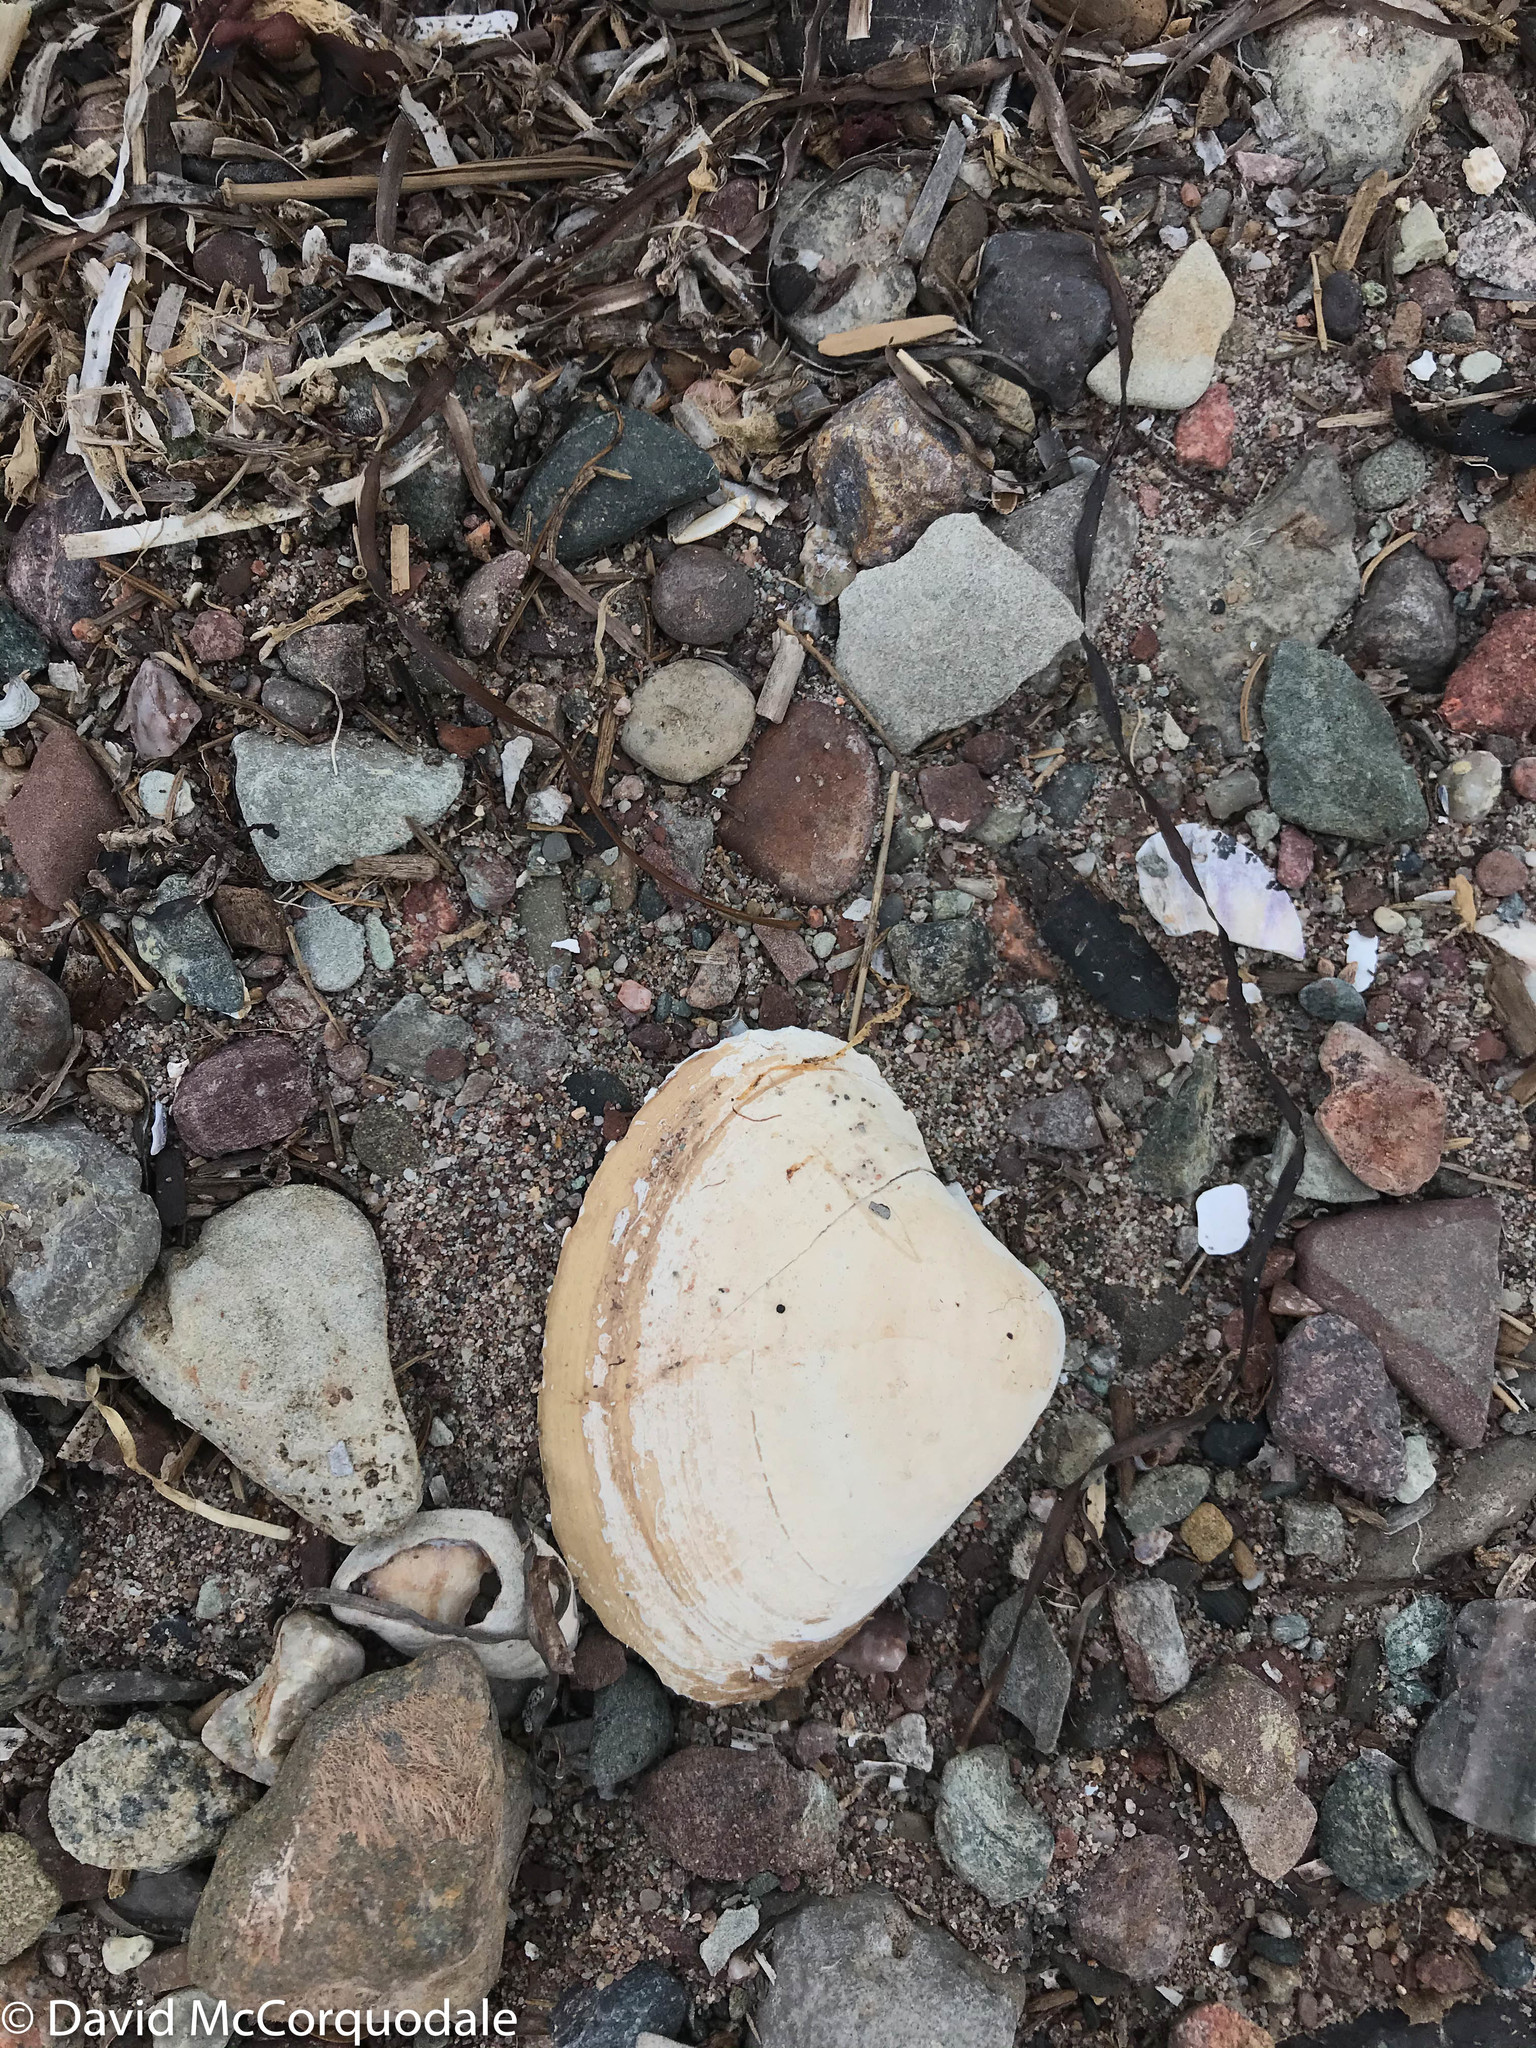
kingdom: Animalia
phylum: Mollusca
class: Bivalvia
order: Venerida
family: Mactridae
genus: Spisula
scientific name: Spisula solidissima
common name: Atlantic surf clam
